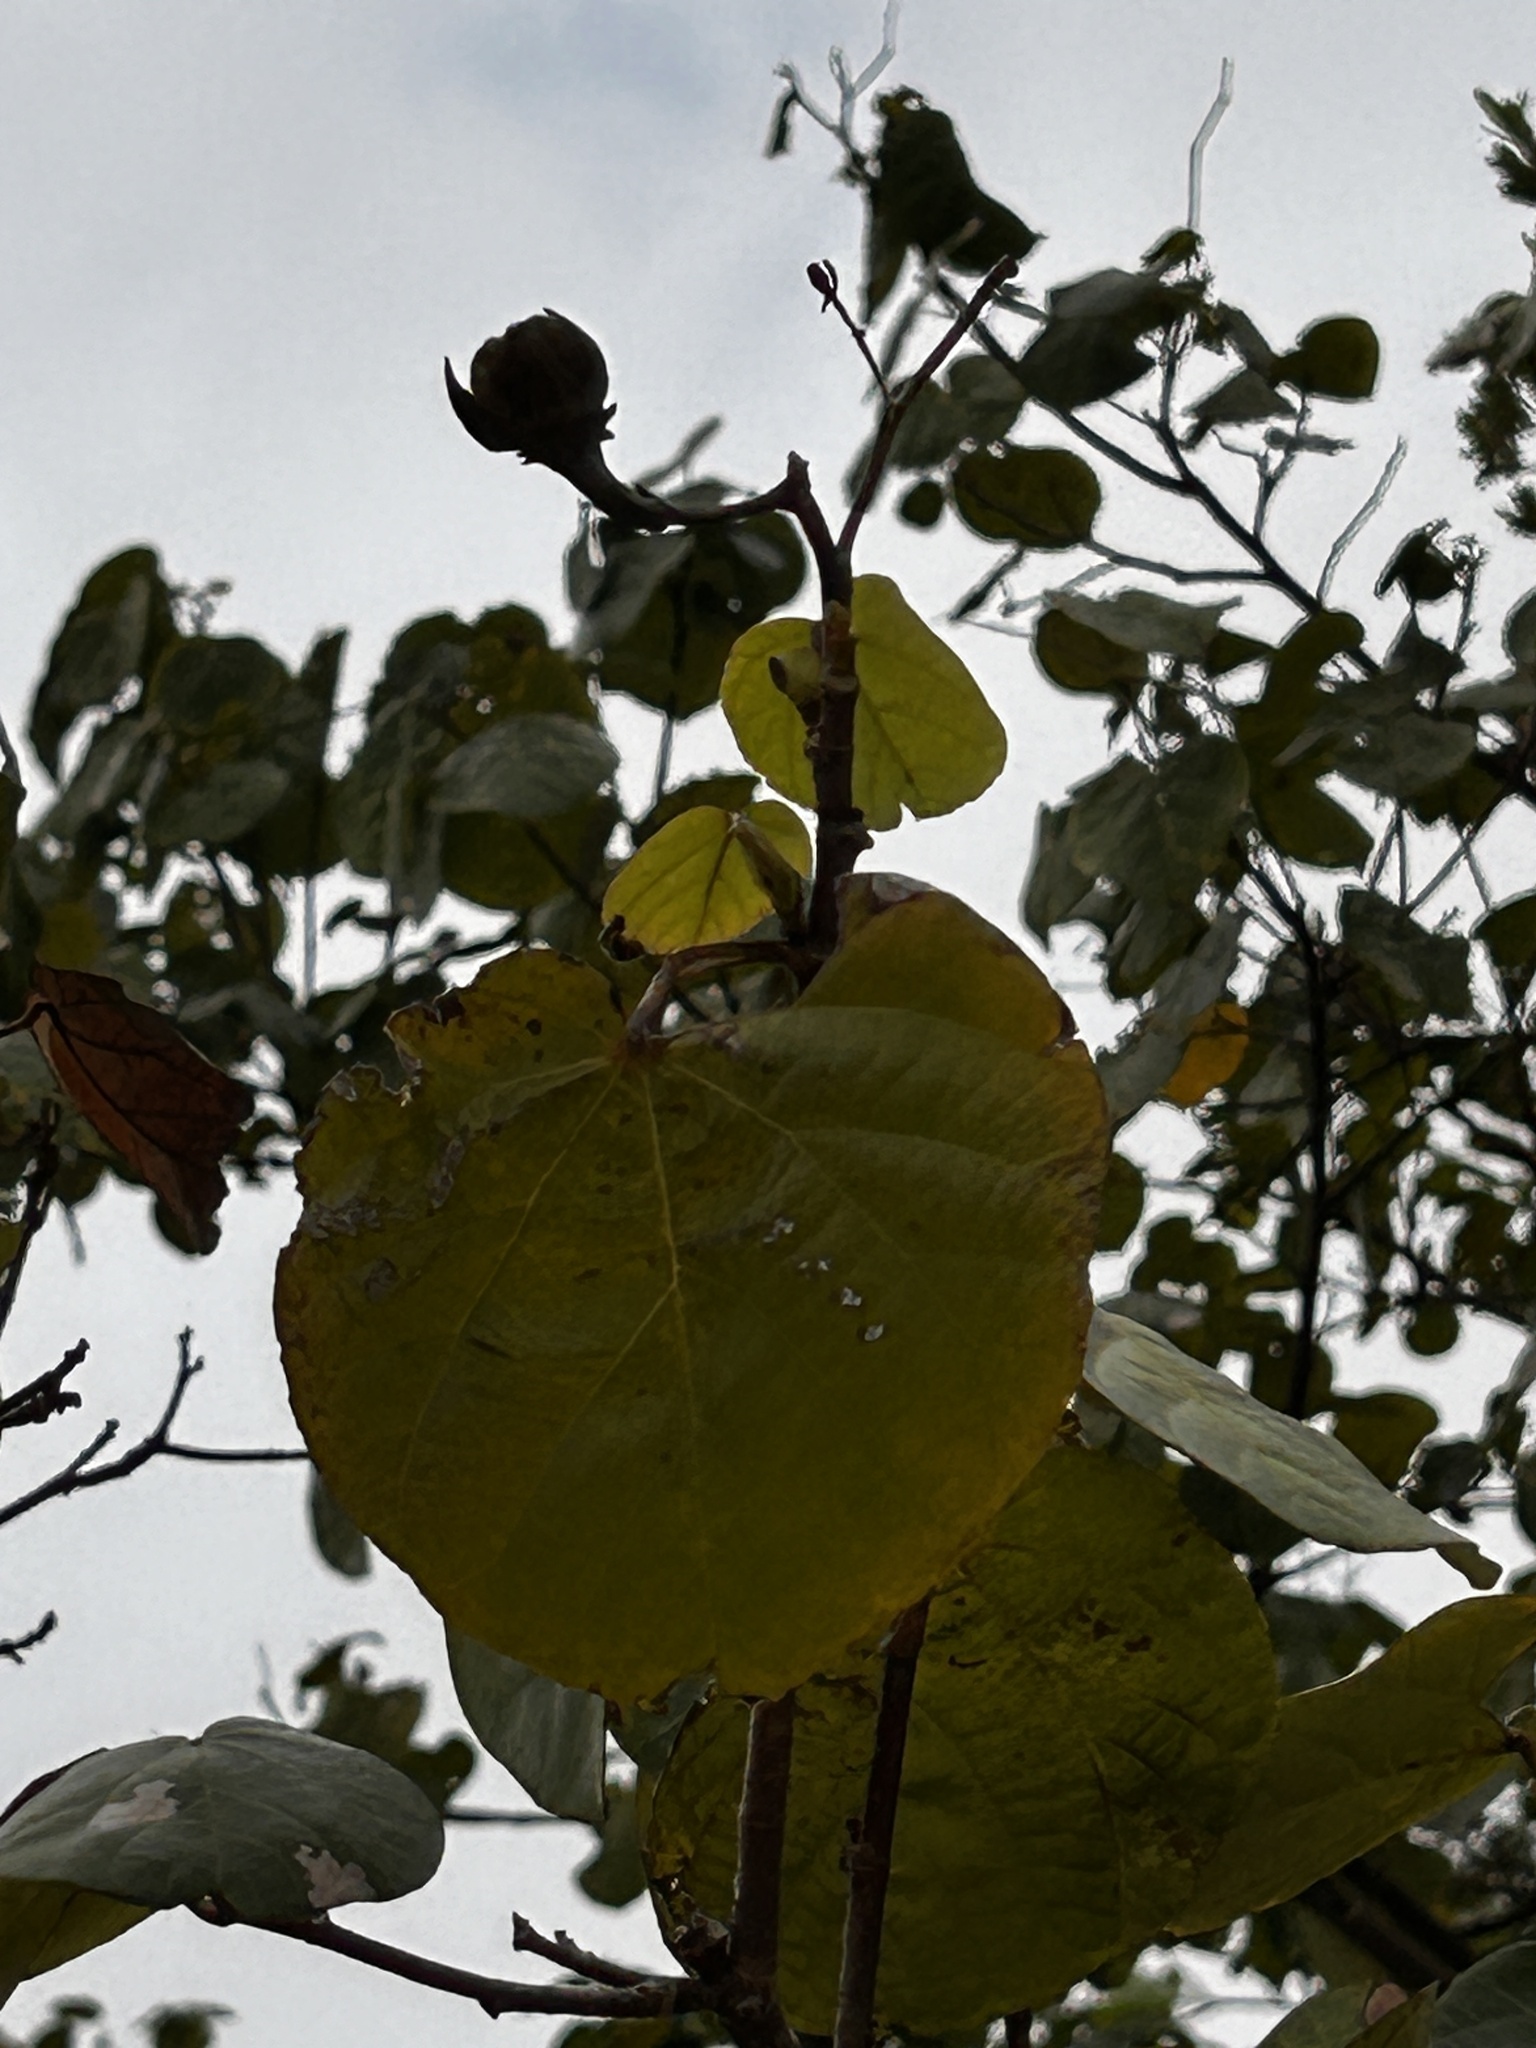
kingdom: Plantae
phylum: Tracheophyta
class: Magnoliopsida
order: Malvales
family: Malvaceae
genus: Talipariti
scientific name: Talipariti tiliaceum
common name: Sea hibiscus
